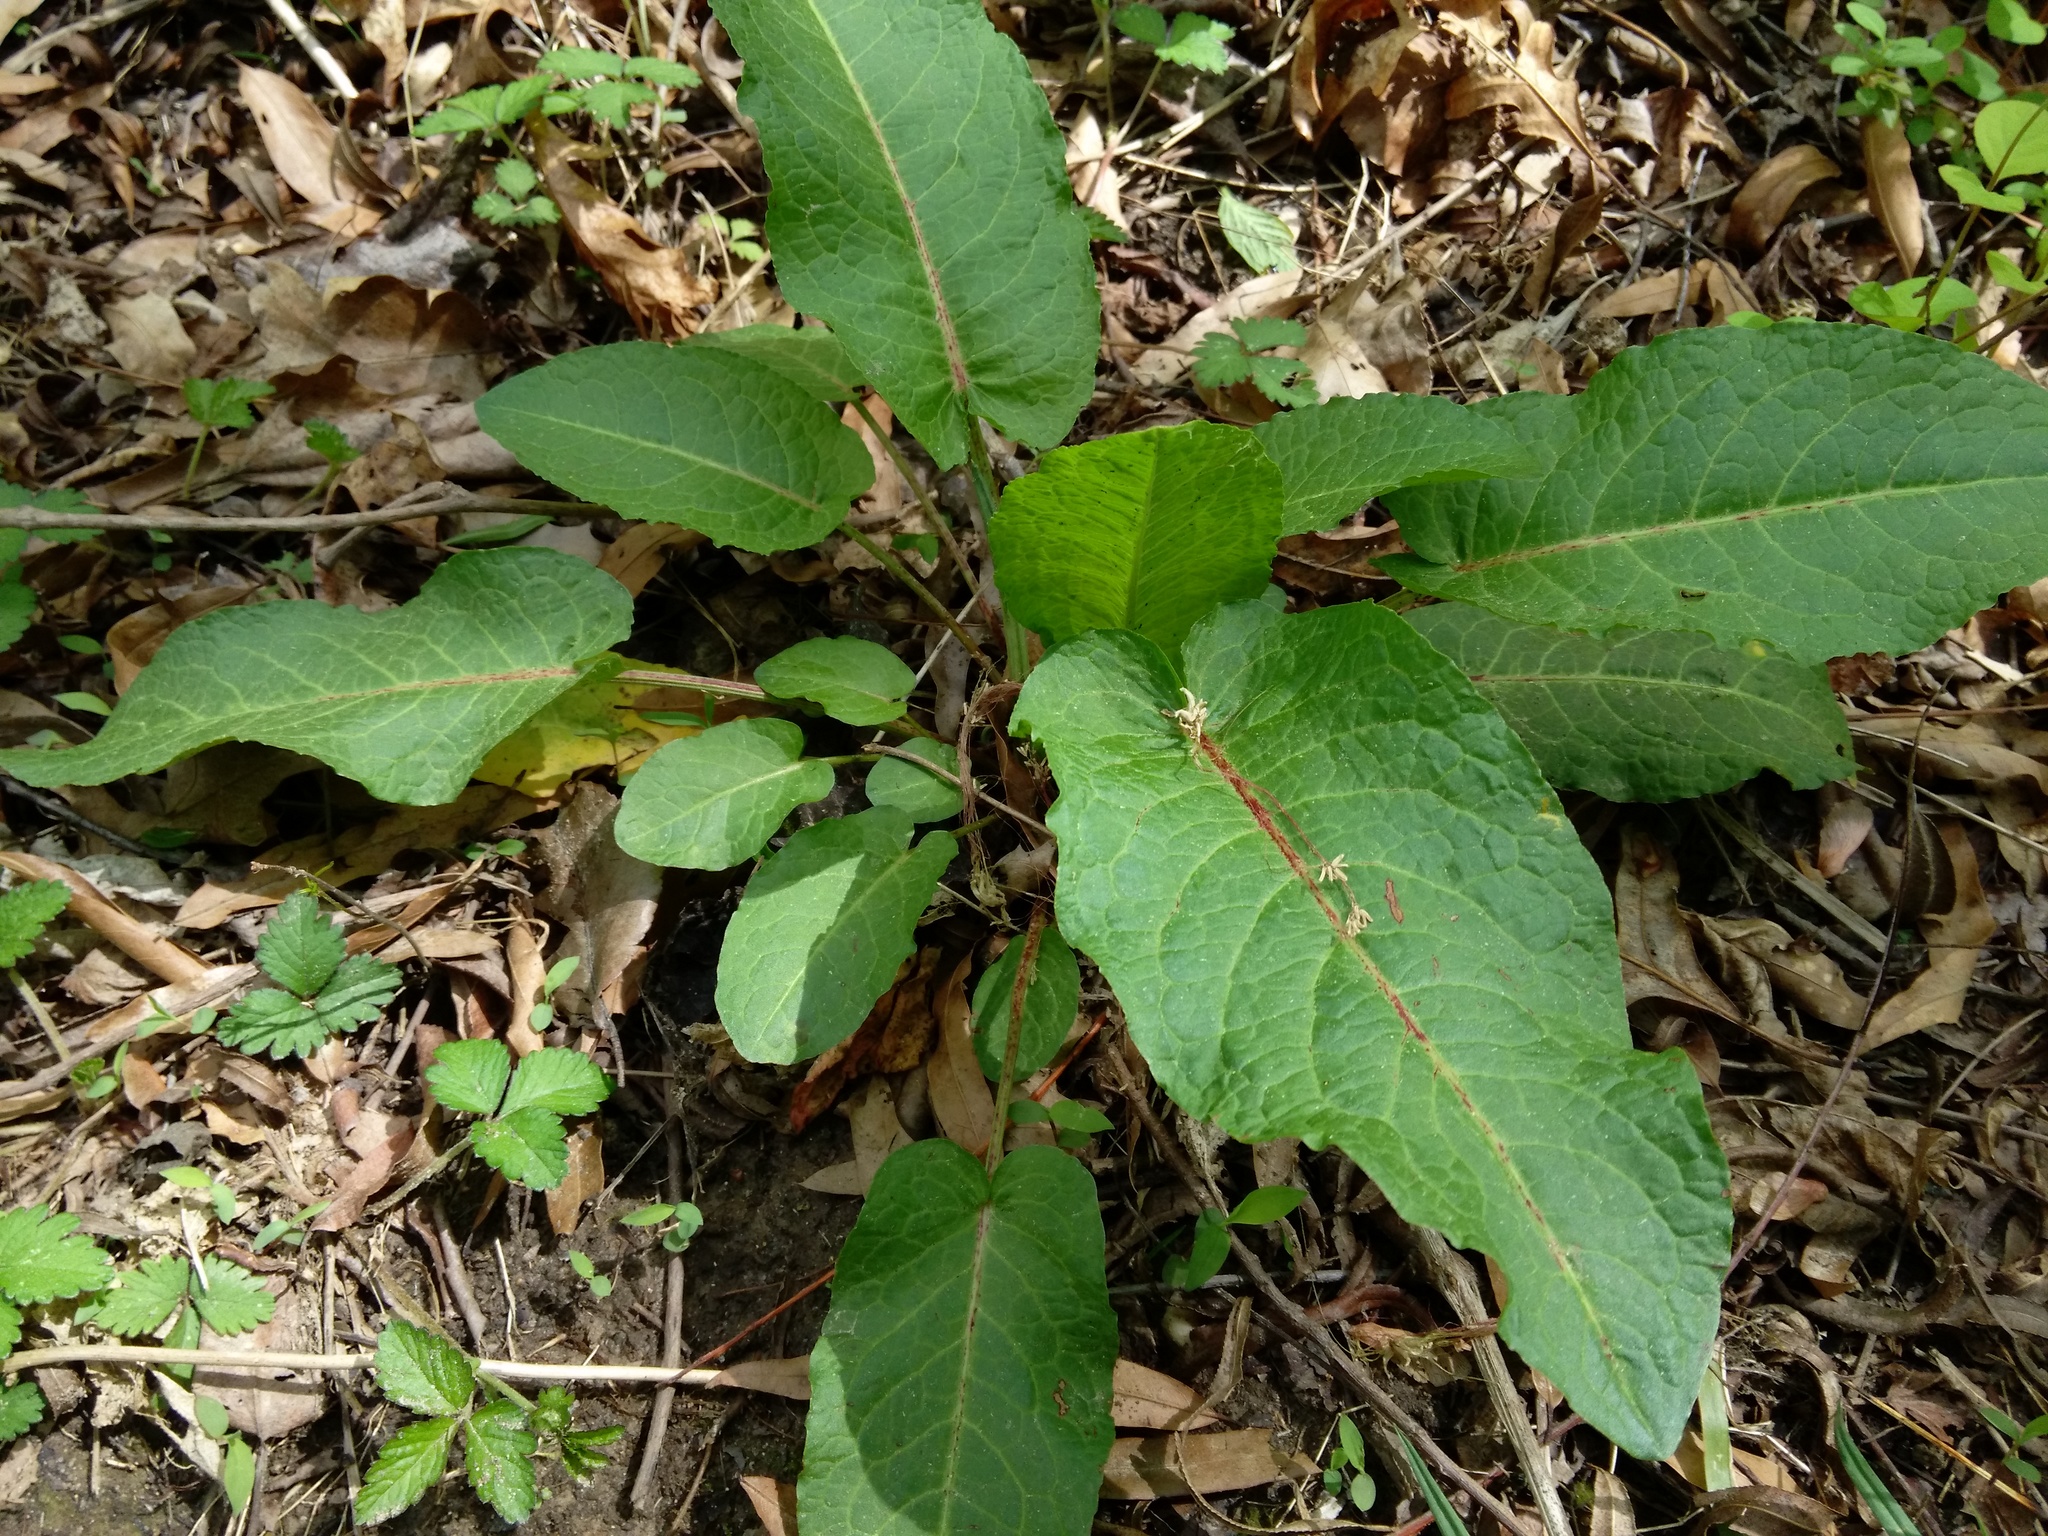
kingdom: Plantae
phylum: Tracheophyta
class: Magnoliopsida
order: Caryophyllales
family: Polygonaceae
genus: Rumex
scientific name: Rumex obtusifolius
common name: Bitter dock
